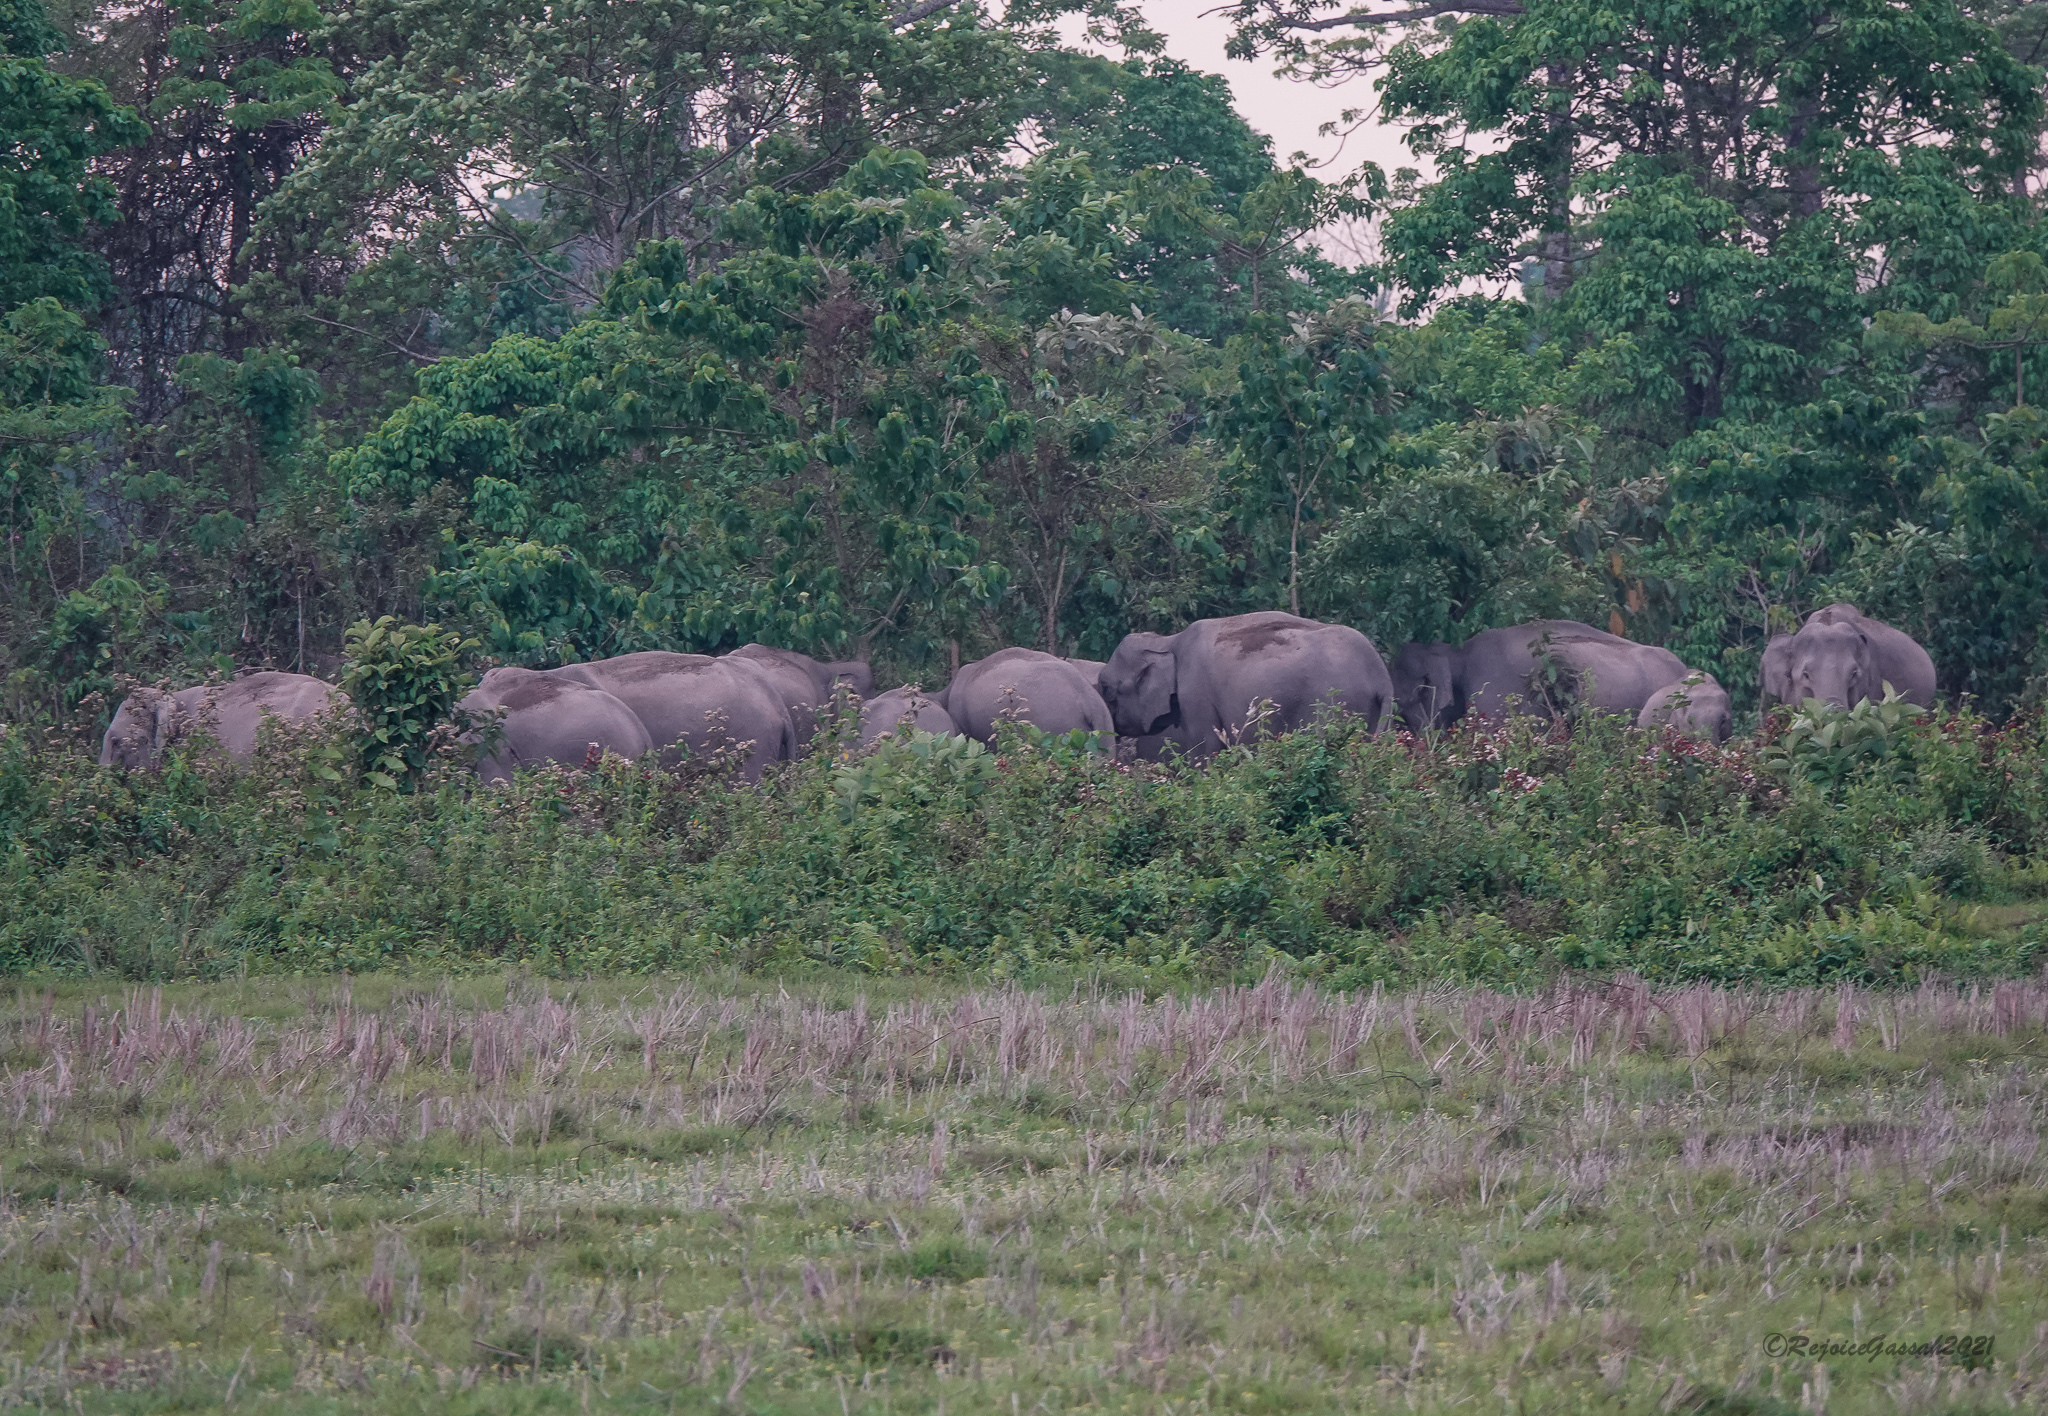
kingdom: Animalia
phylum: Chordata
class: Mammalia
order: Proboscidea
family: Elephantidae
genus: Elephas
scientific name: Elephas maximus
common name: Asian elephant
